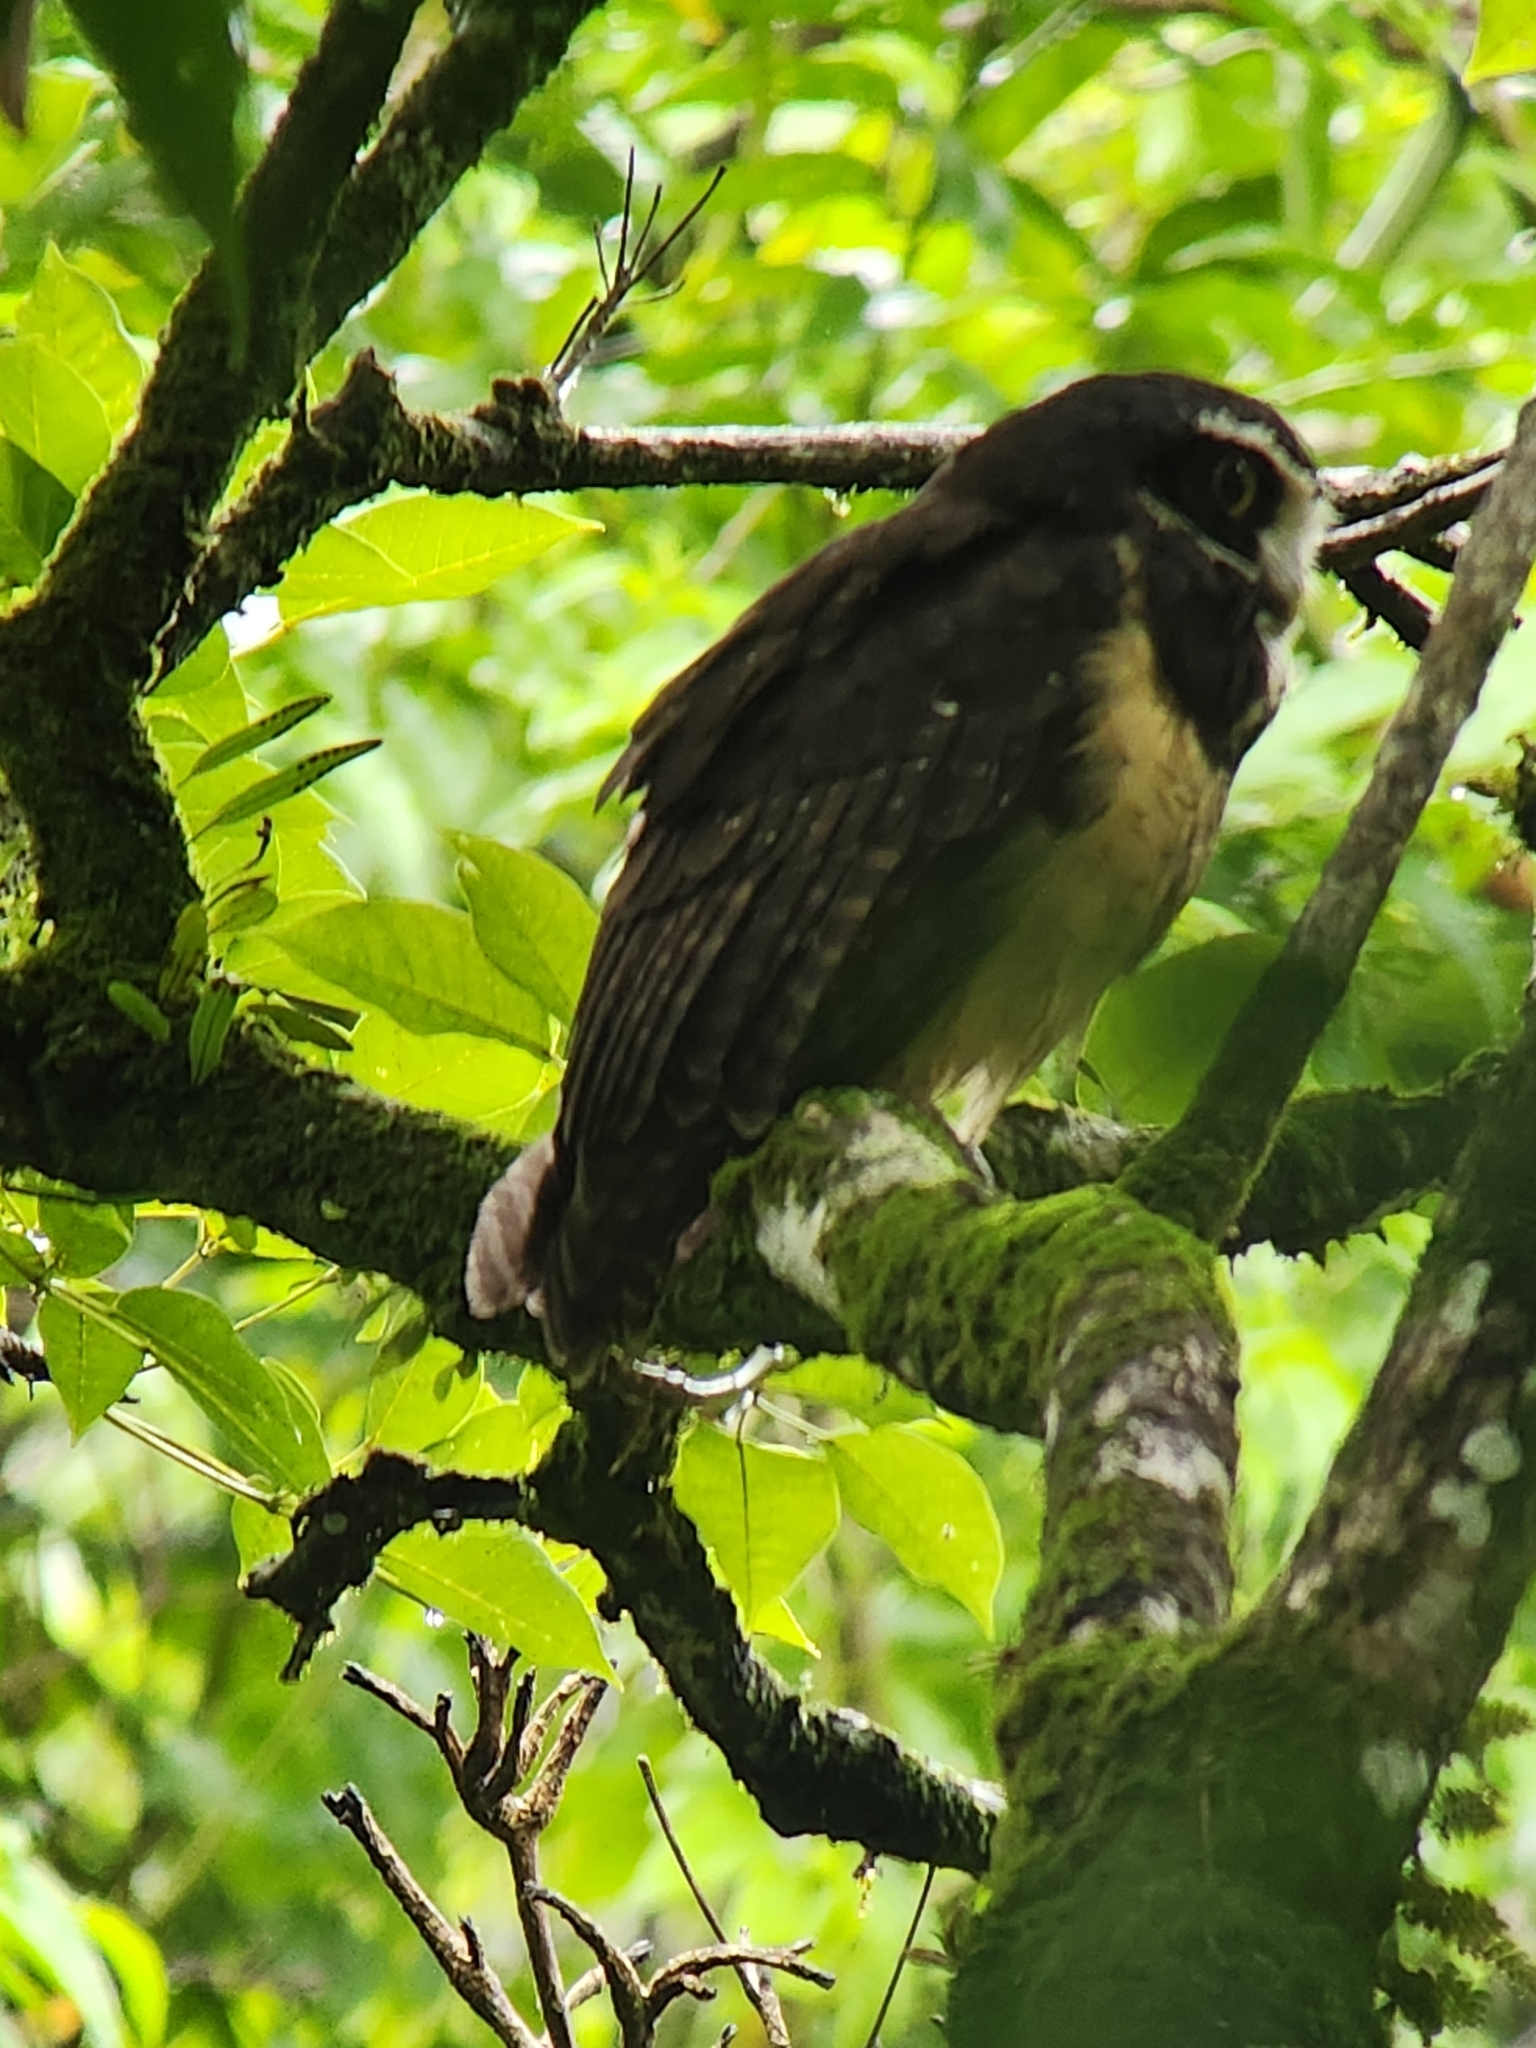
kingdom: Animalia
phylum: Chordata
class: Aves
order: Strigiformes
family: Strigidae
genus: Pulsatrix
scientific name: Pulsatrix perspicillata
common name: Spectacled owl
